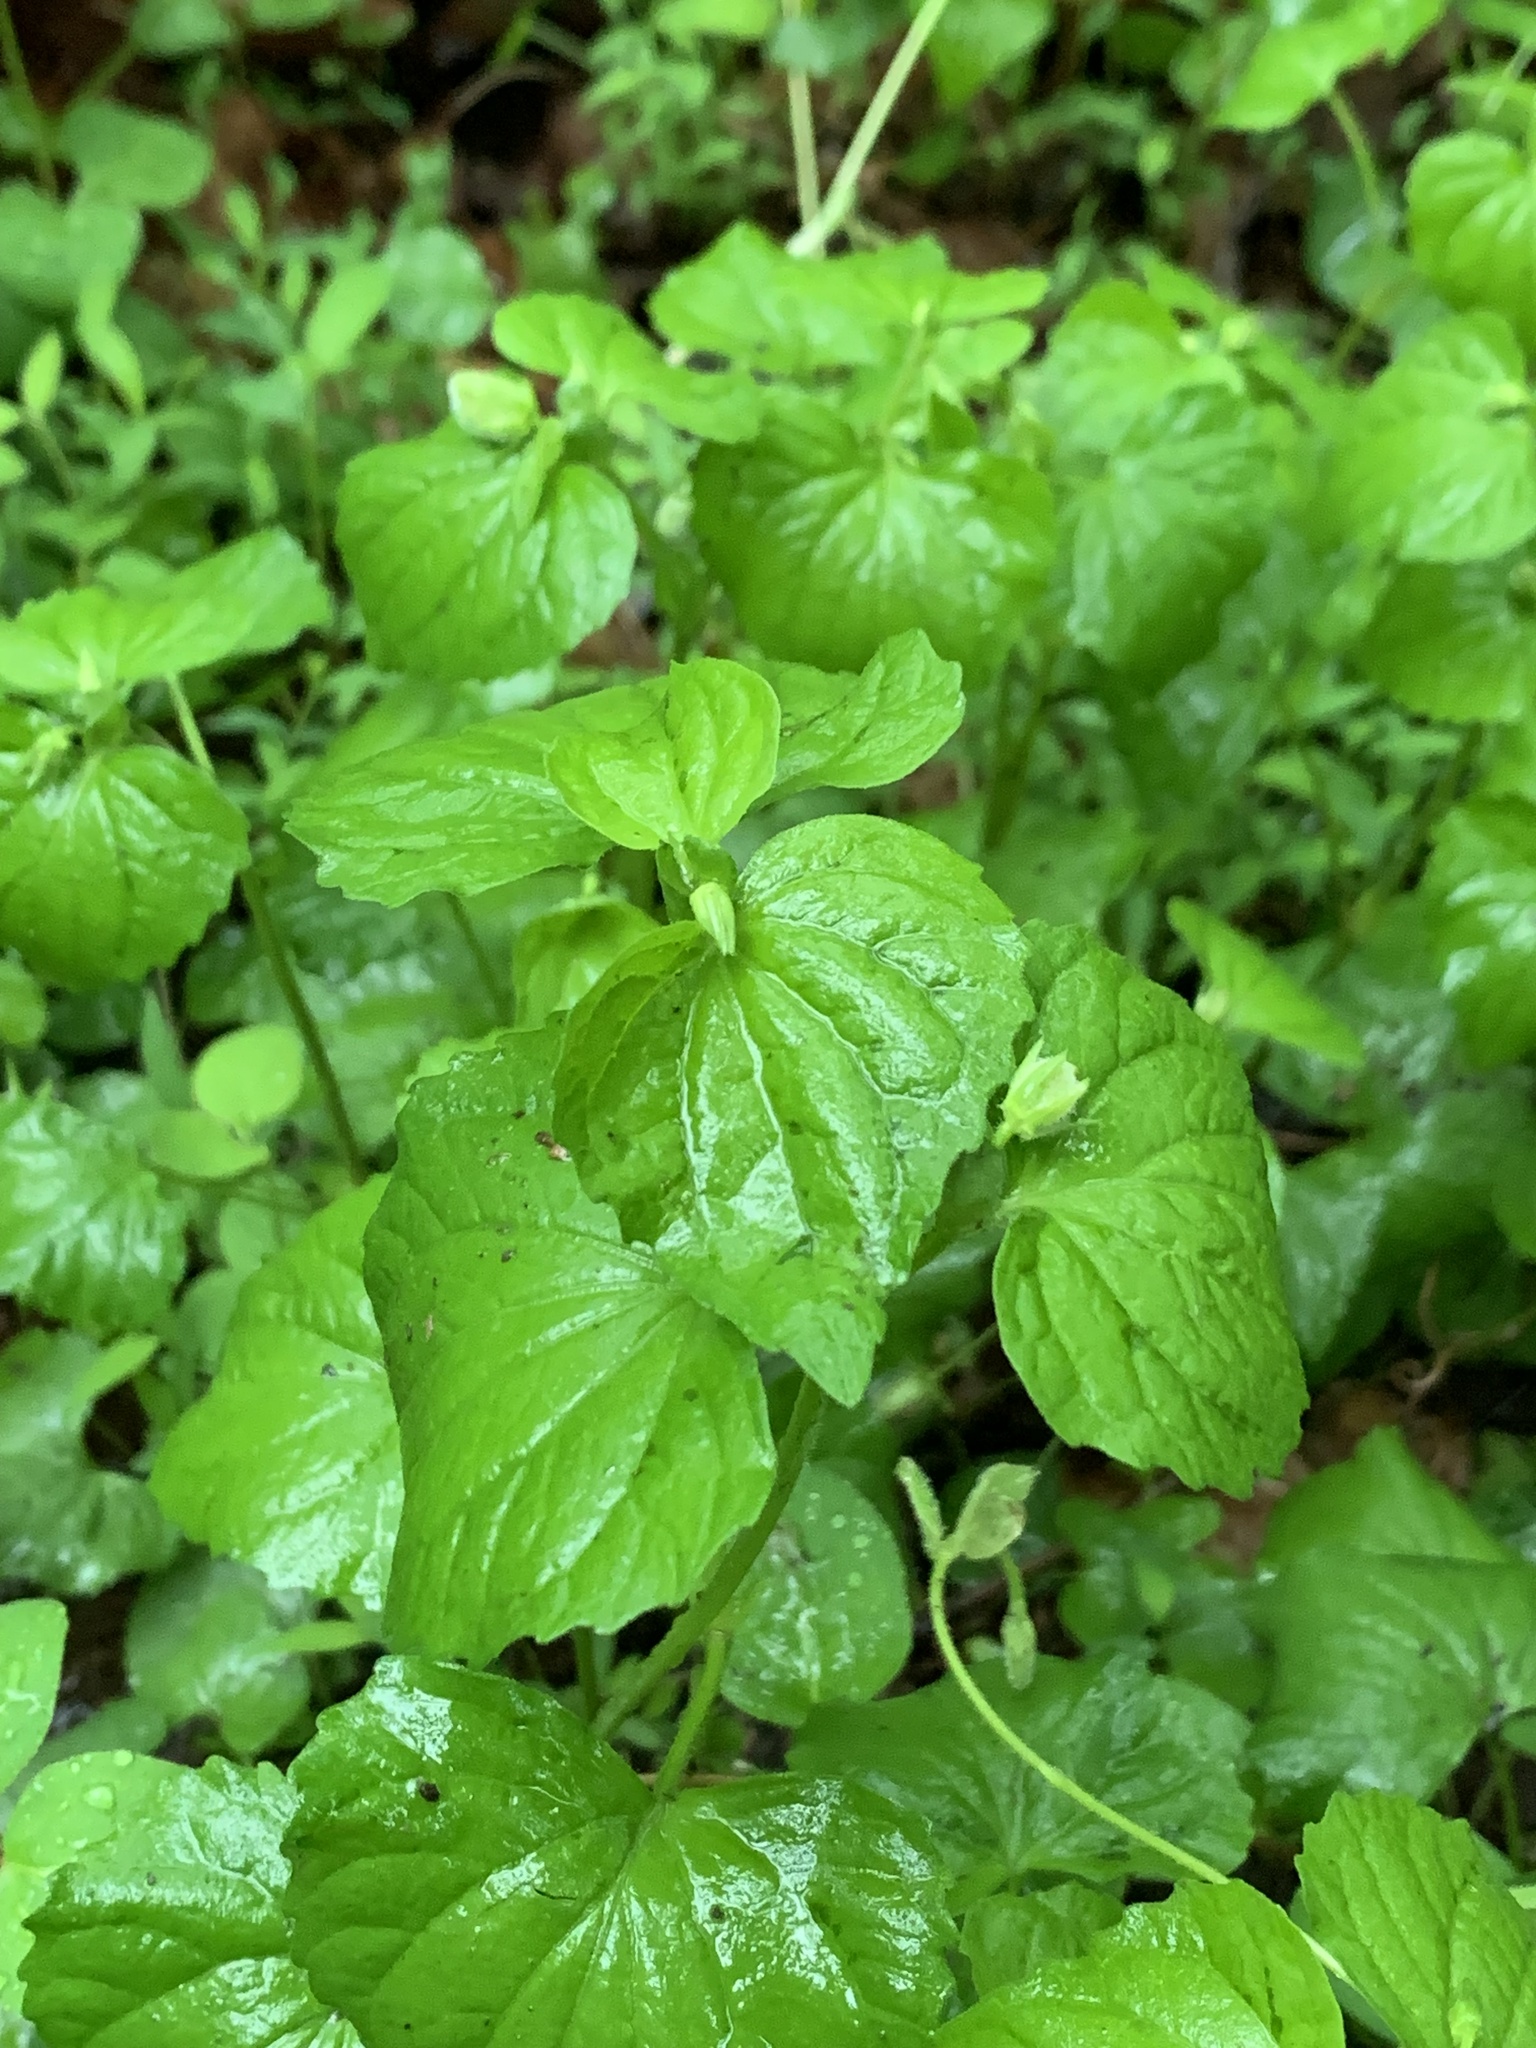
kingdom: Plantae
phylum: Tracheophyta
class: Magnoliopsida
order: Malpighiales
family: Violaceae
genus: Viola
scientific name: Viola eriocarpa
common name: Smooth yellow violet
